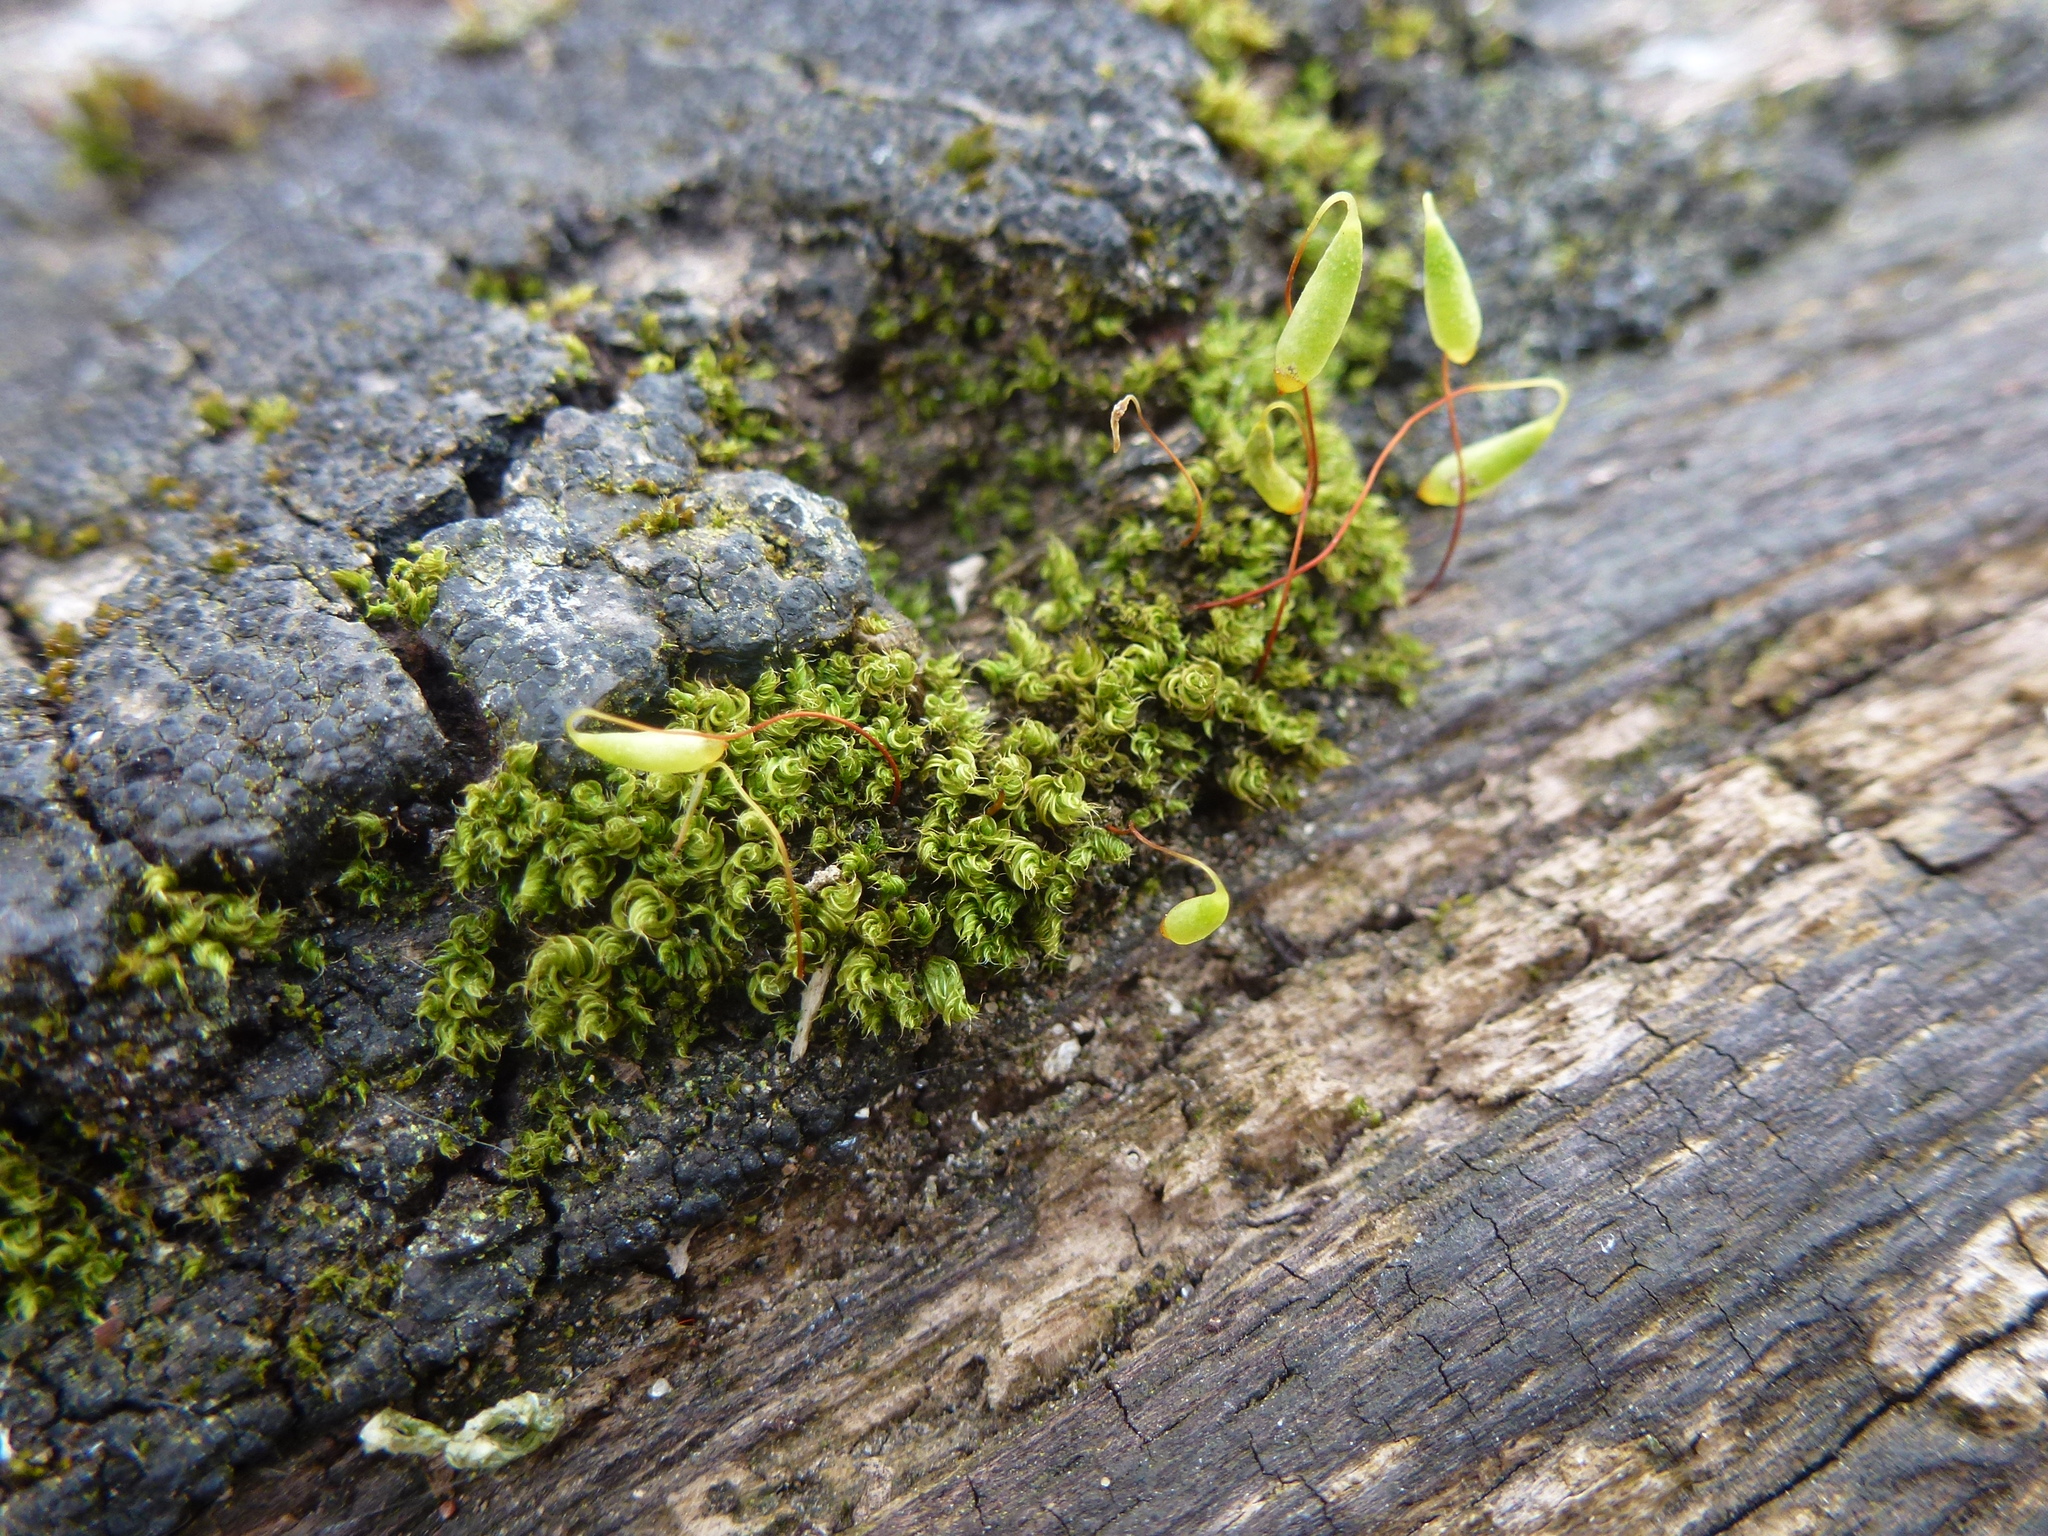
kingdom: Plantae
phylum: Bryophyta
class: Bryopsida
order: Bryales
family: Bryaceae
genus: Rosulabryum
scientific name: Rosulabryum capillare
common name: Capillary thread-moss
